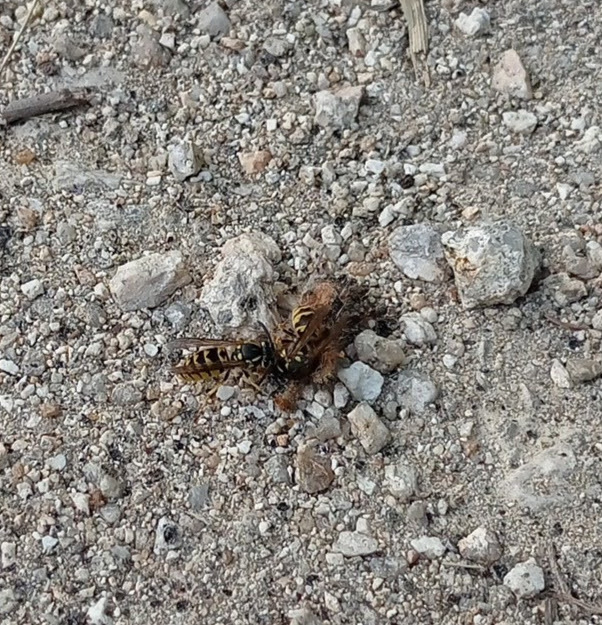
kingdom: Animalia
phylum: Arthropoda
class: Insecta
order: Hymenoptera
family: Vespidae
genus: Vespula
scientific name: Vespula germanica
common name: German wasp
